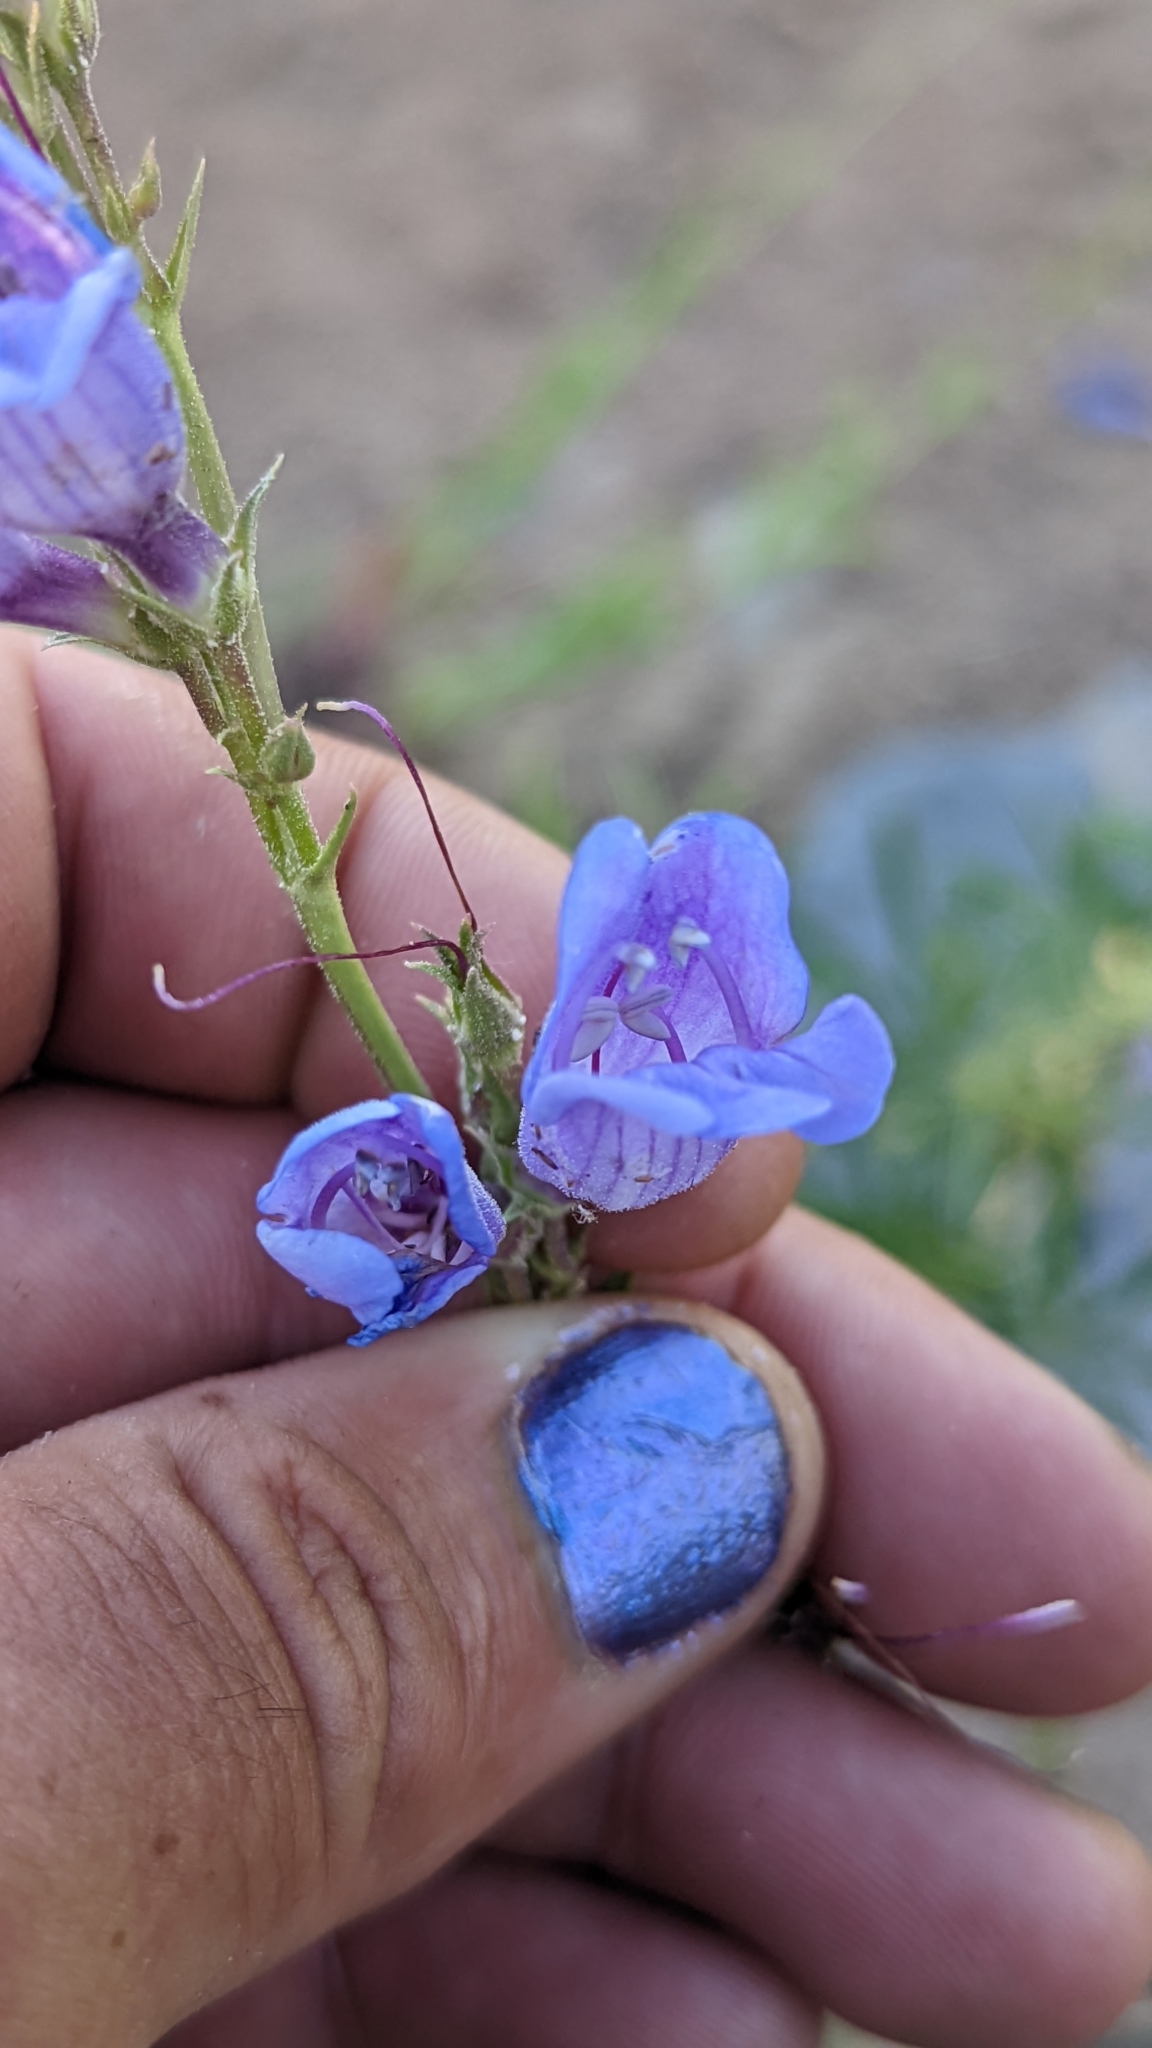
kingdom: Plantae
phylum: Tracheophyta
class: Magnoliopsida
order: Lamiales
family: Plantaginaceae
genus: Penstemon
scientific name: Penstemon leiophyllus
